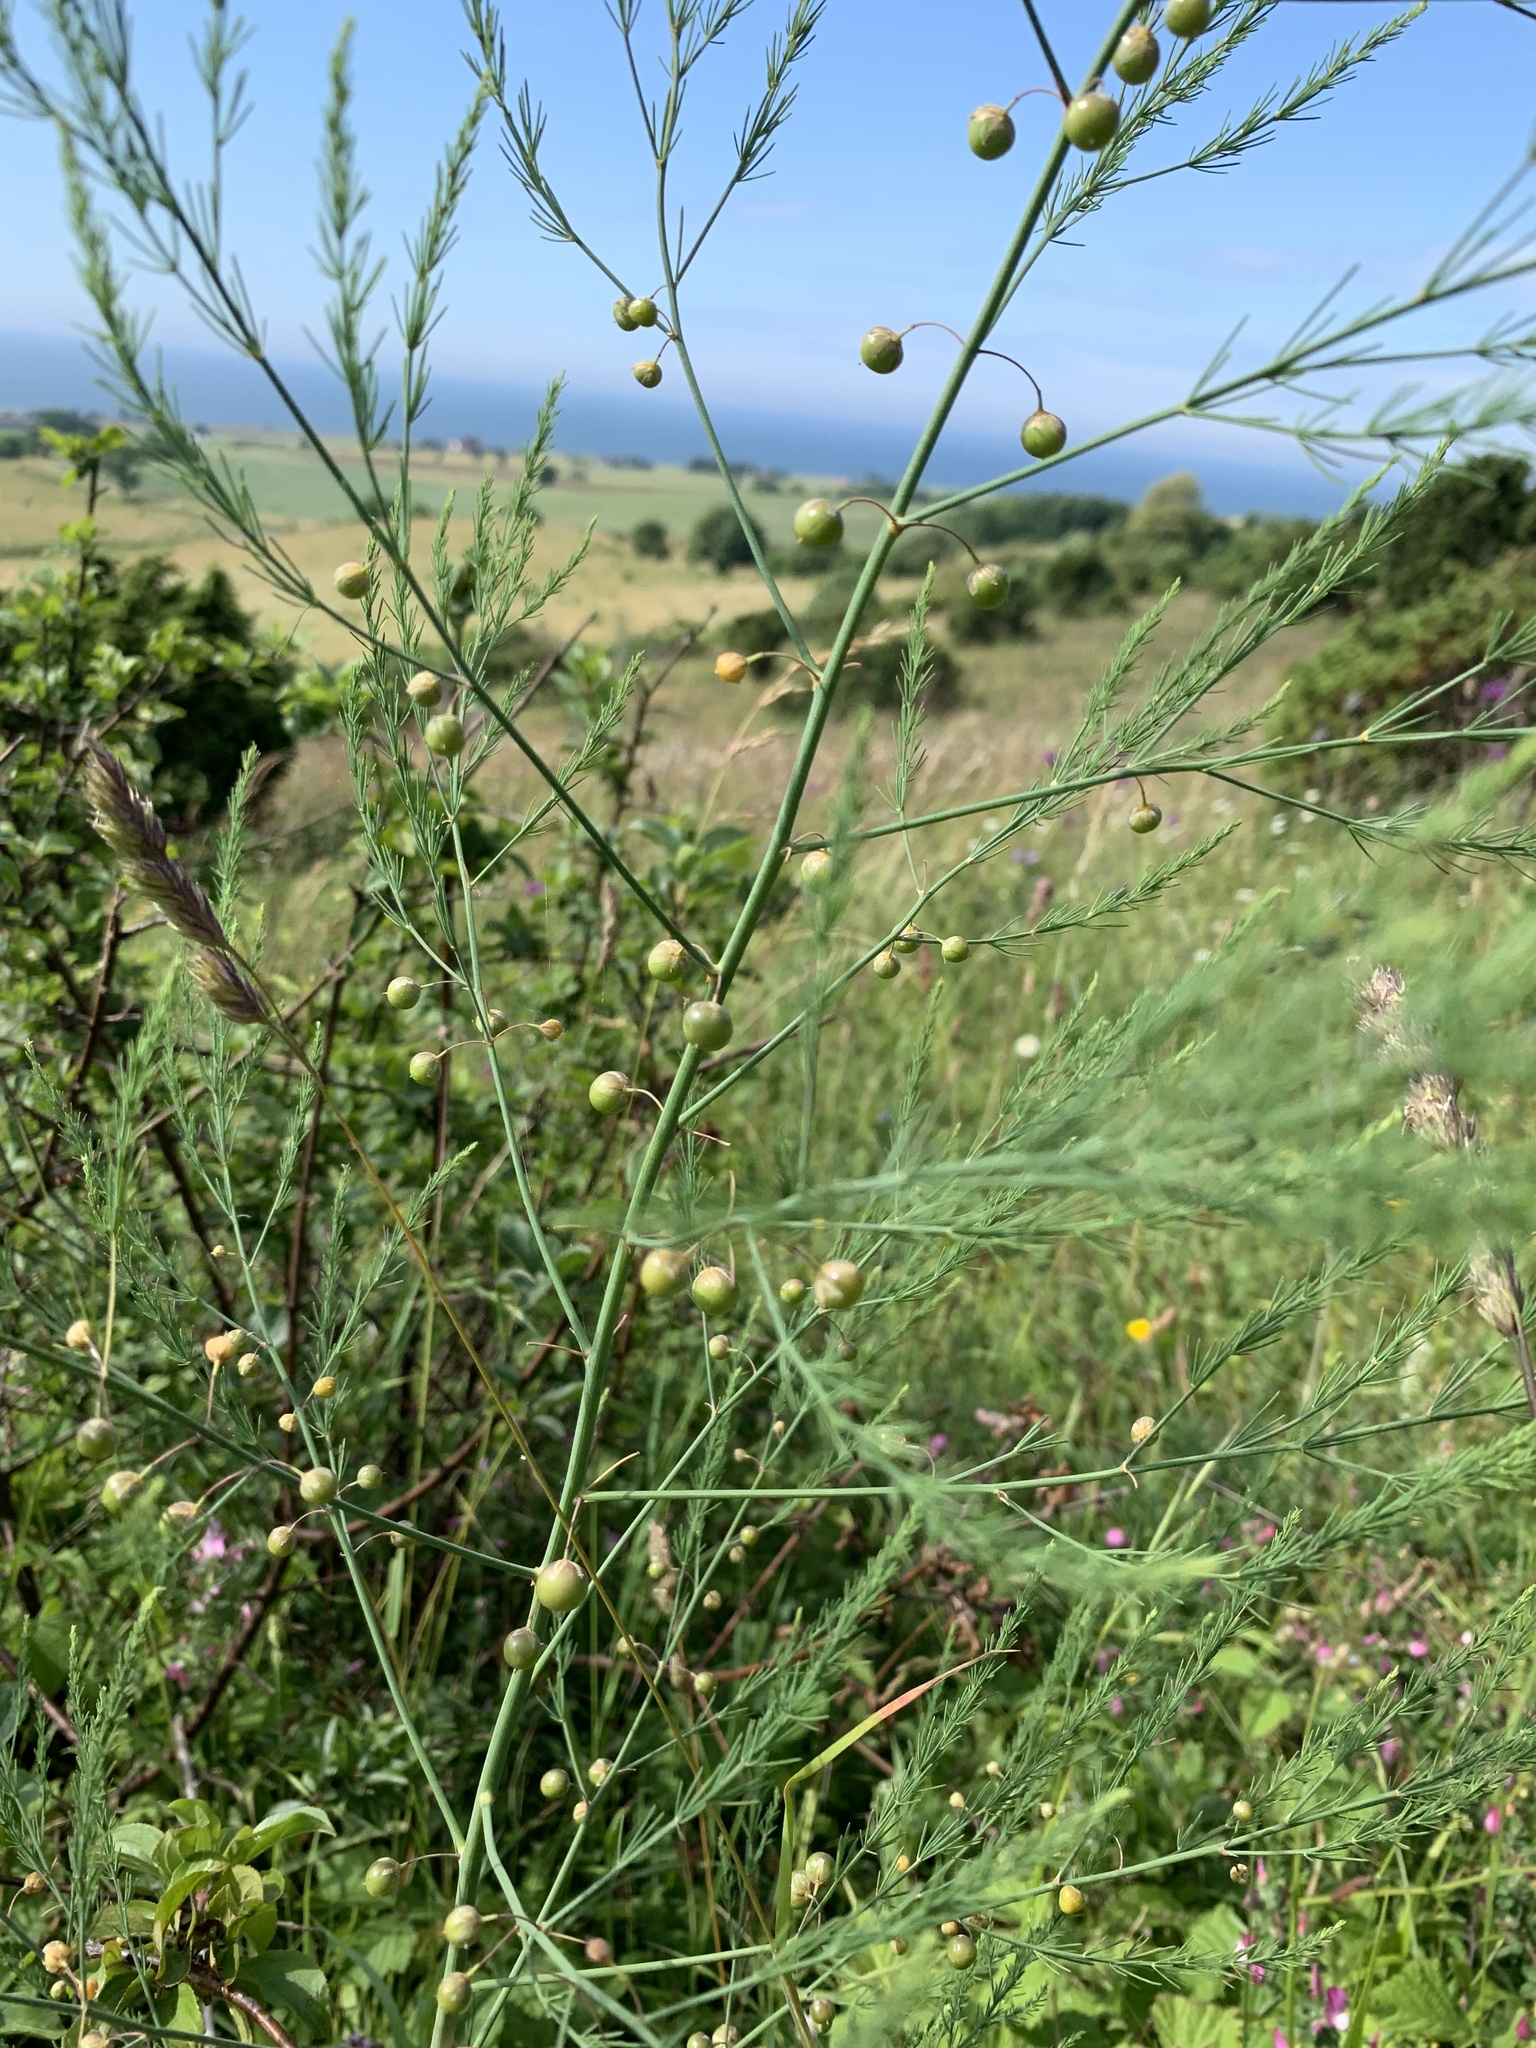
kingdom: Plantae
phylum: Tracheophyta
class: Liliopsida
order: Asparagales
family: Asparagaceae
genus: Asparagus
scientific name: Asparagus officinalis
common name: Garden asparagus
